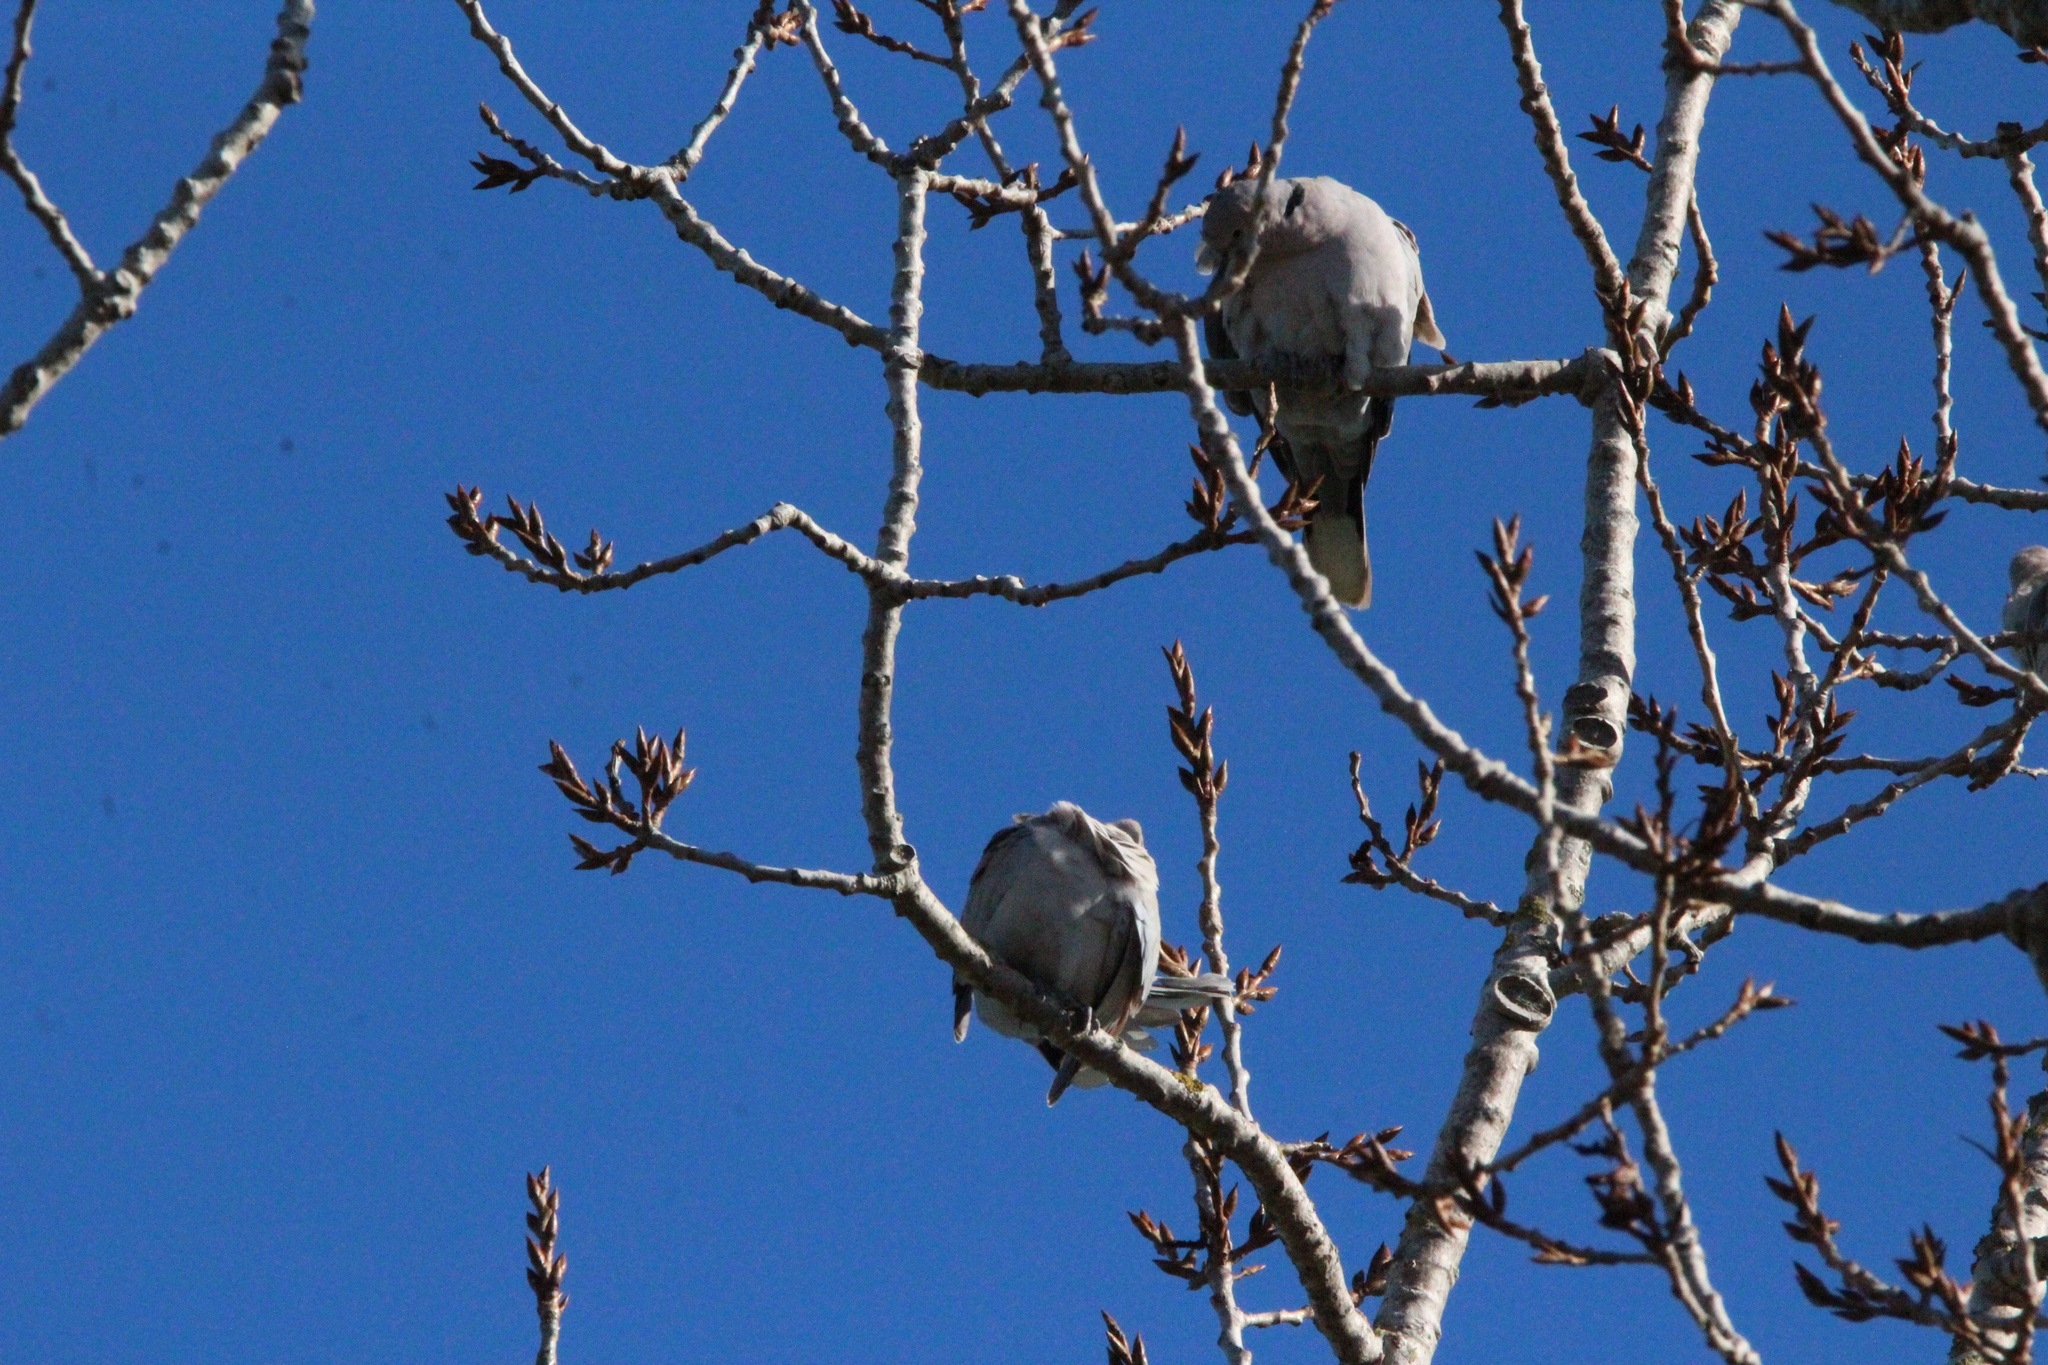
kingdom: Animalia
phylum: Chordata
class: Aves
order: Columbiformes
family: Columbidae
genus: Streptopelia
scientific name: Streptopelia decaocto
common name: Eurasian collared dove
